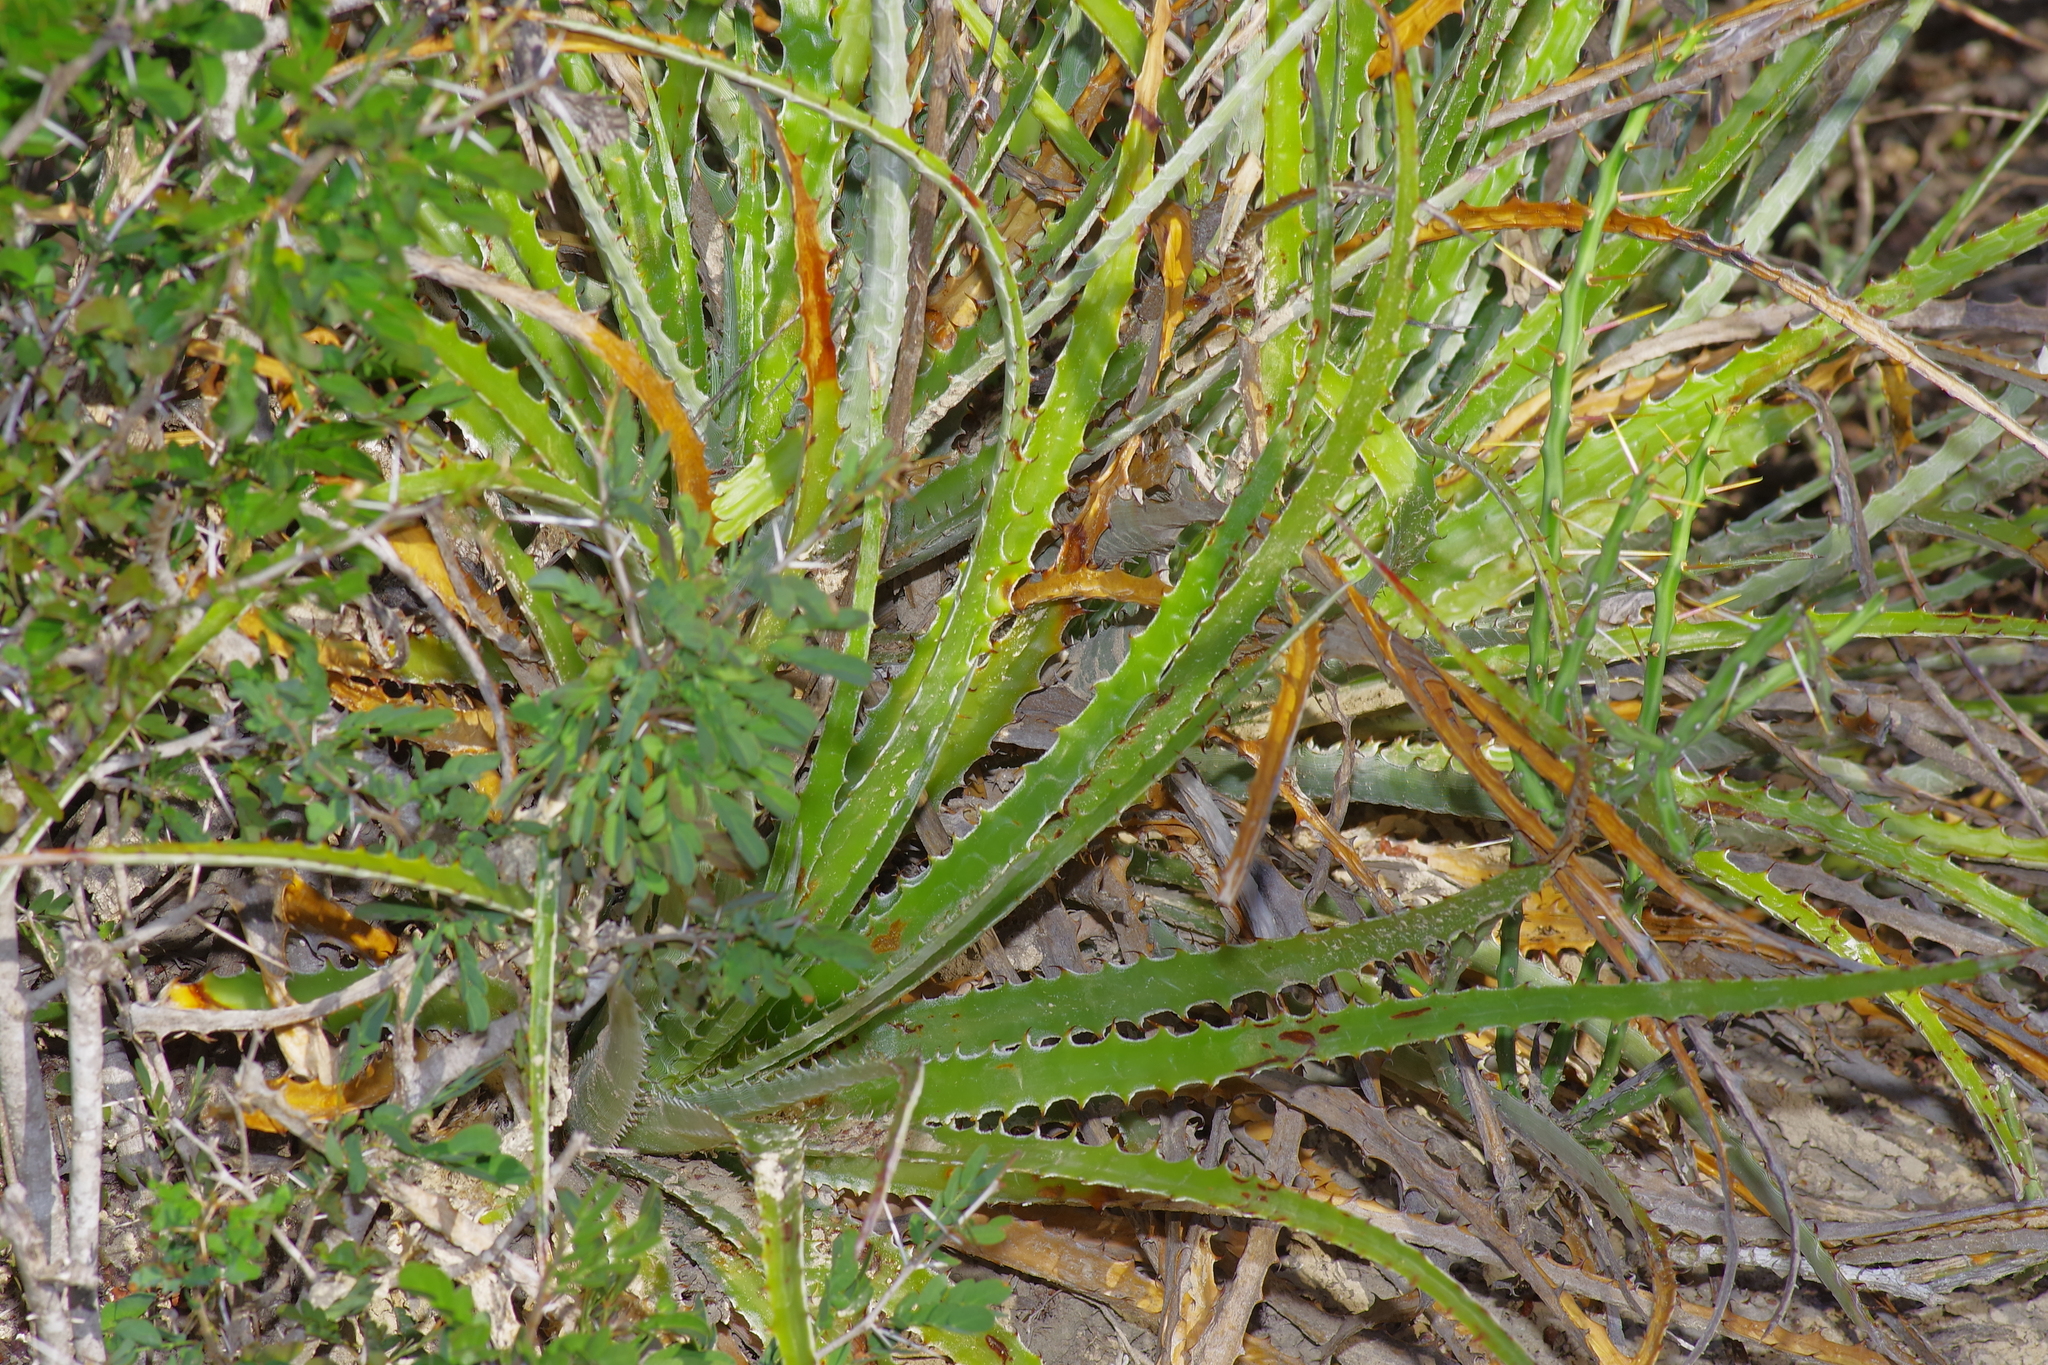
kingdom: Plantae
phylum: Tracheophyta
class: Liliopsida
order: Poales
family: Bromeliaceae
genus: Hechtia
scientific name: Hechtia glomerata
